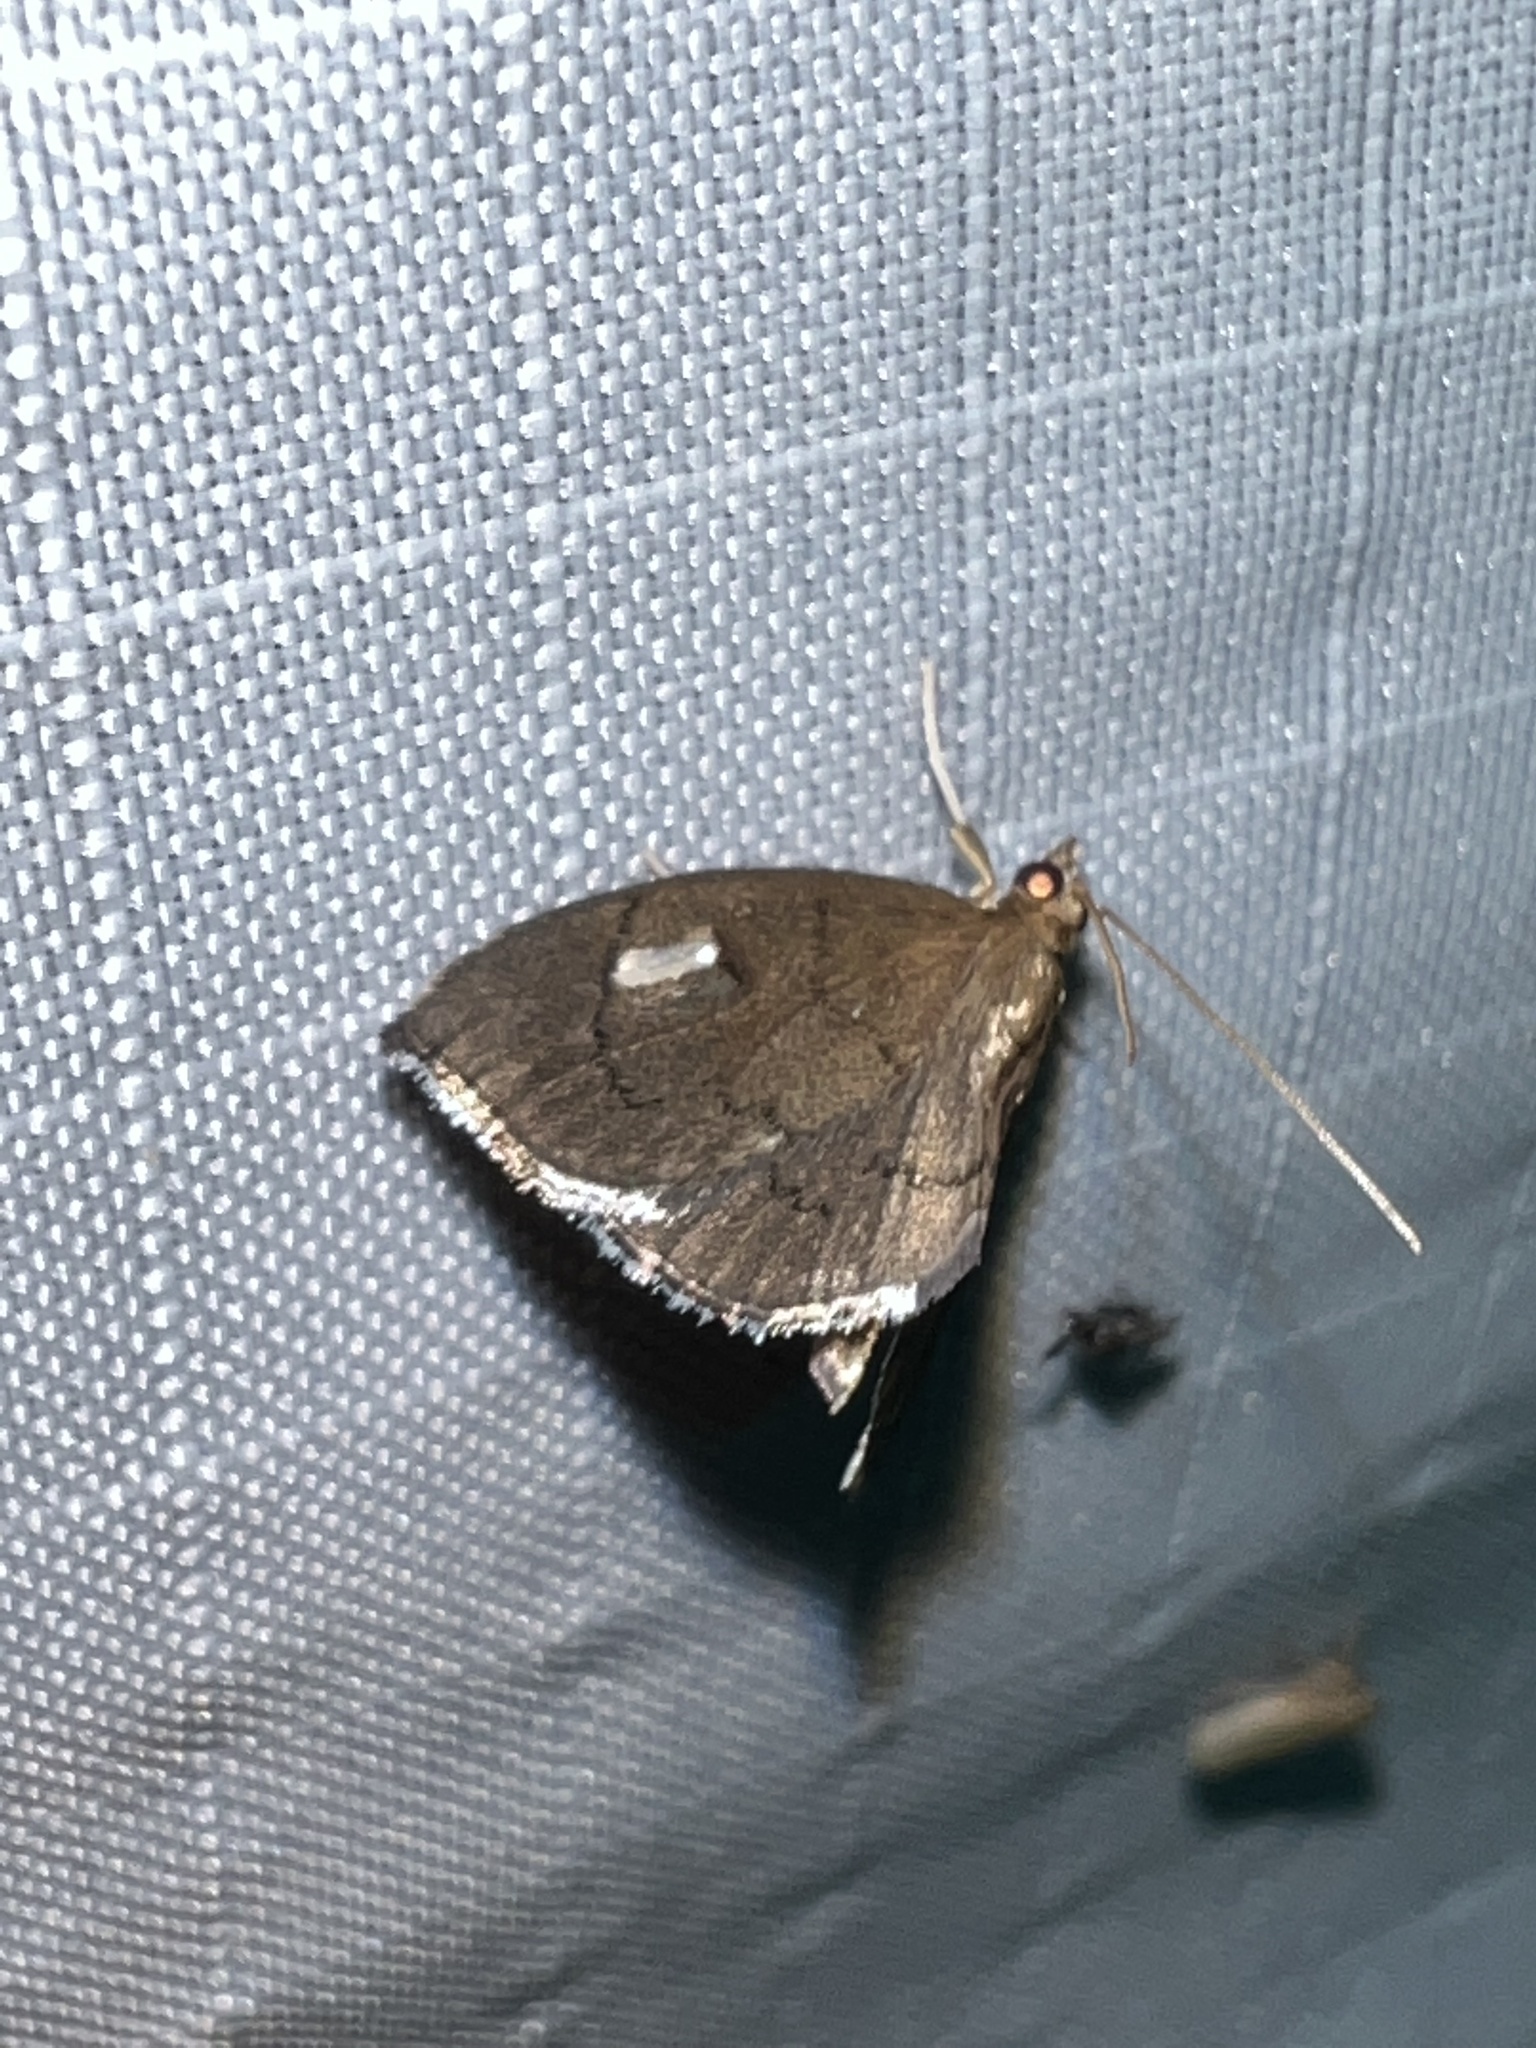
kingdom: Animalia
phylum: Arthropoda
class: Insecta
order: Lepidoptera
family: Crambidae
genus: Perispasta
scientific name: Perispasta caeculalis
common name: Titian peale's moth
